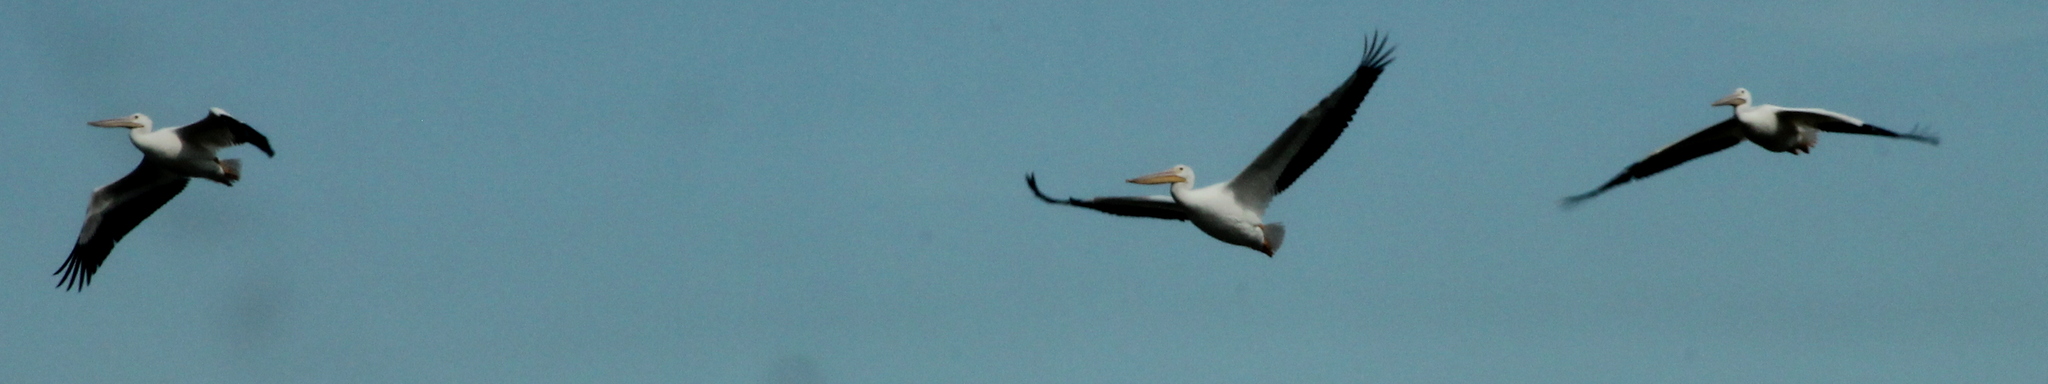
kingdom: Animalia
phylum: Chordata
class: Aves
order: Pelecaniformes
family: Pelecanidae
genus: Pelecanus
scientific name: Pelecanus erythrorhynchos
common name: American white pelican
